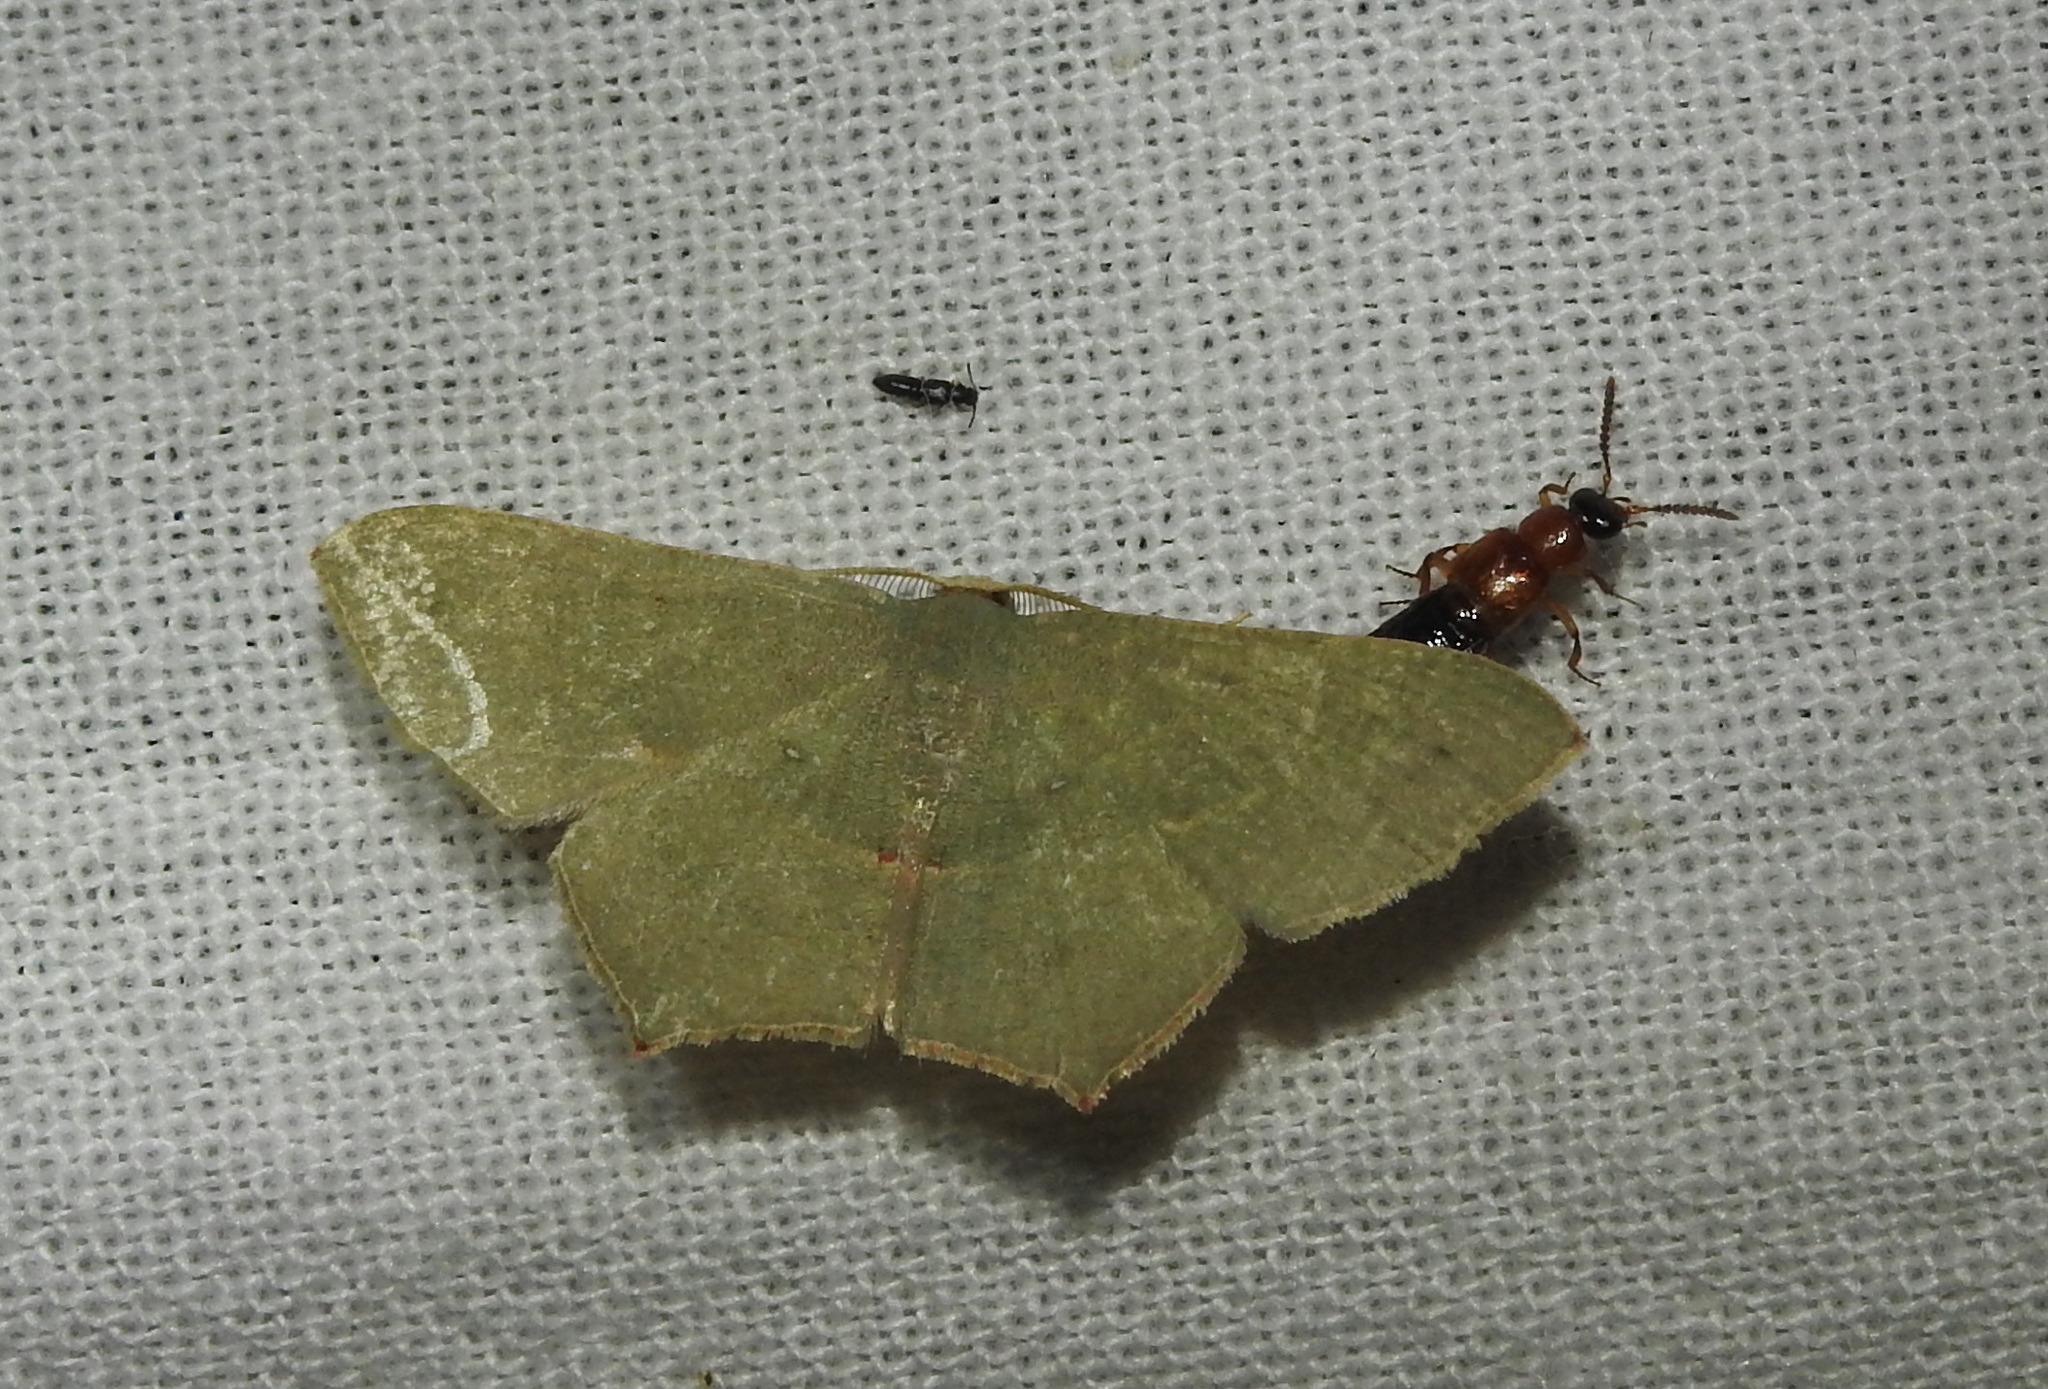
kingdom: Animalia
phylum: Arthropoda
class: Insecta
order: Lepidoptera
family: Geometridae
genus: Traminda
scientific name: Traminda mundissima
